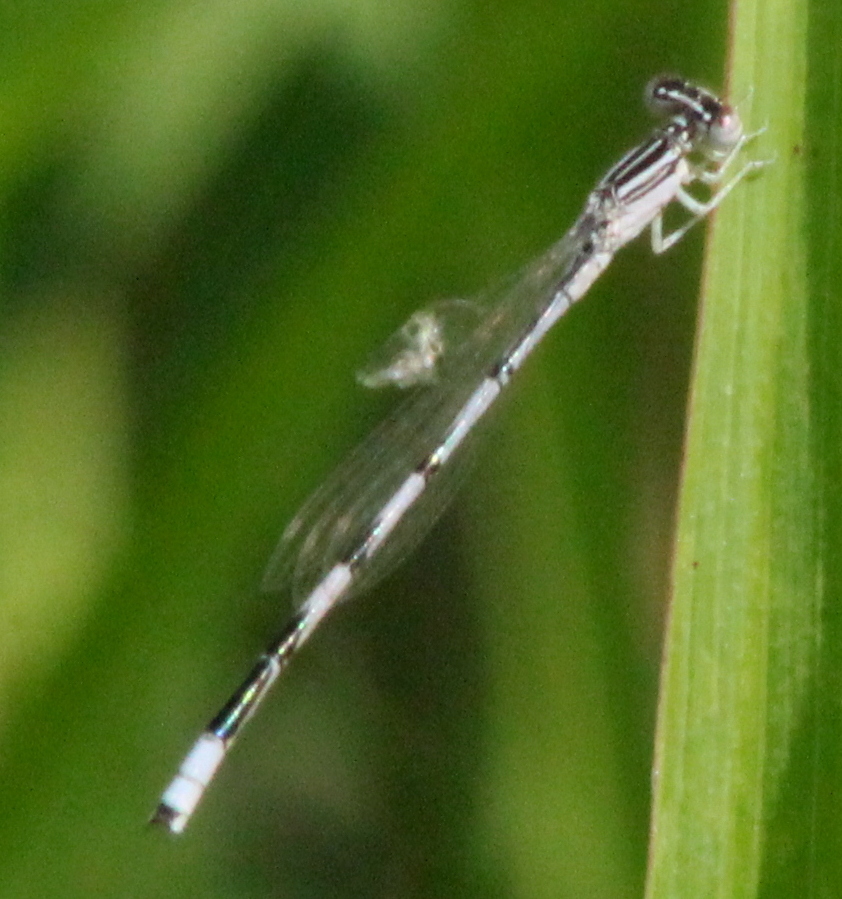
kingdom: Animalia
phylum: Arthropoda
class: Insecta
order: Odonata
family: Coenagrionidae
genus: Enallagma
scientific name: Enallagma basidens
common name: Double-striped bluet
